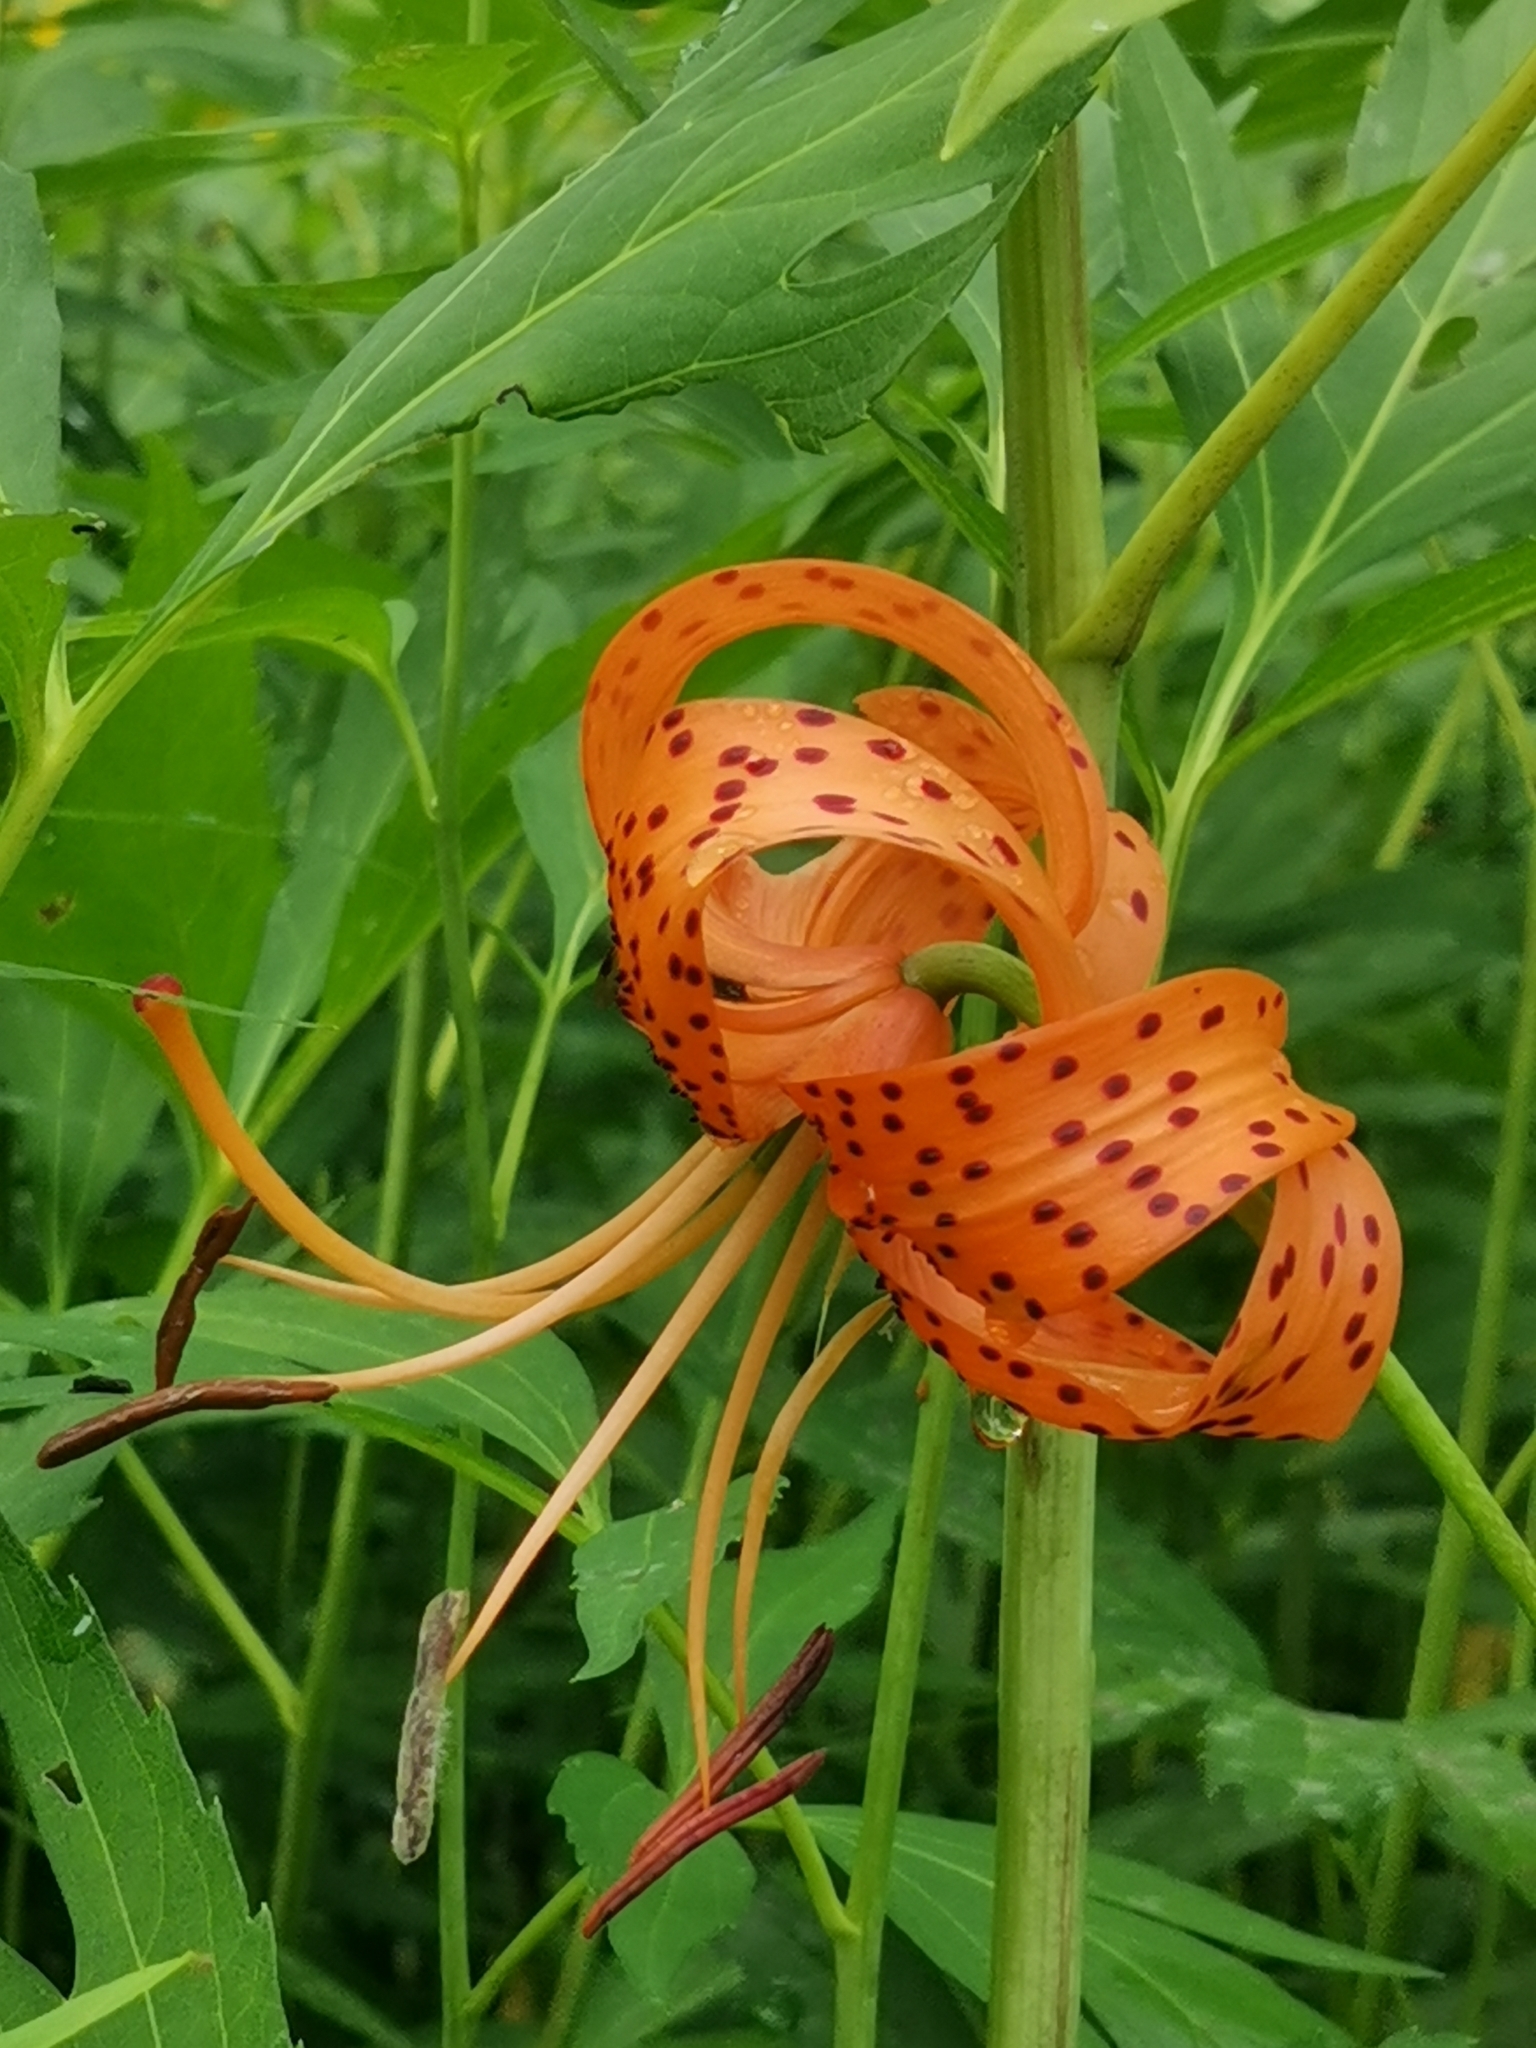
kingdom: Plantae
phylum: Tracheophyta
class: Liliopsida
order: Liliales
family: Liliaceae
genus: Lilium
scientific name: Lilium lancifolium
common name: Tiger lily
